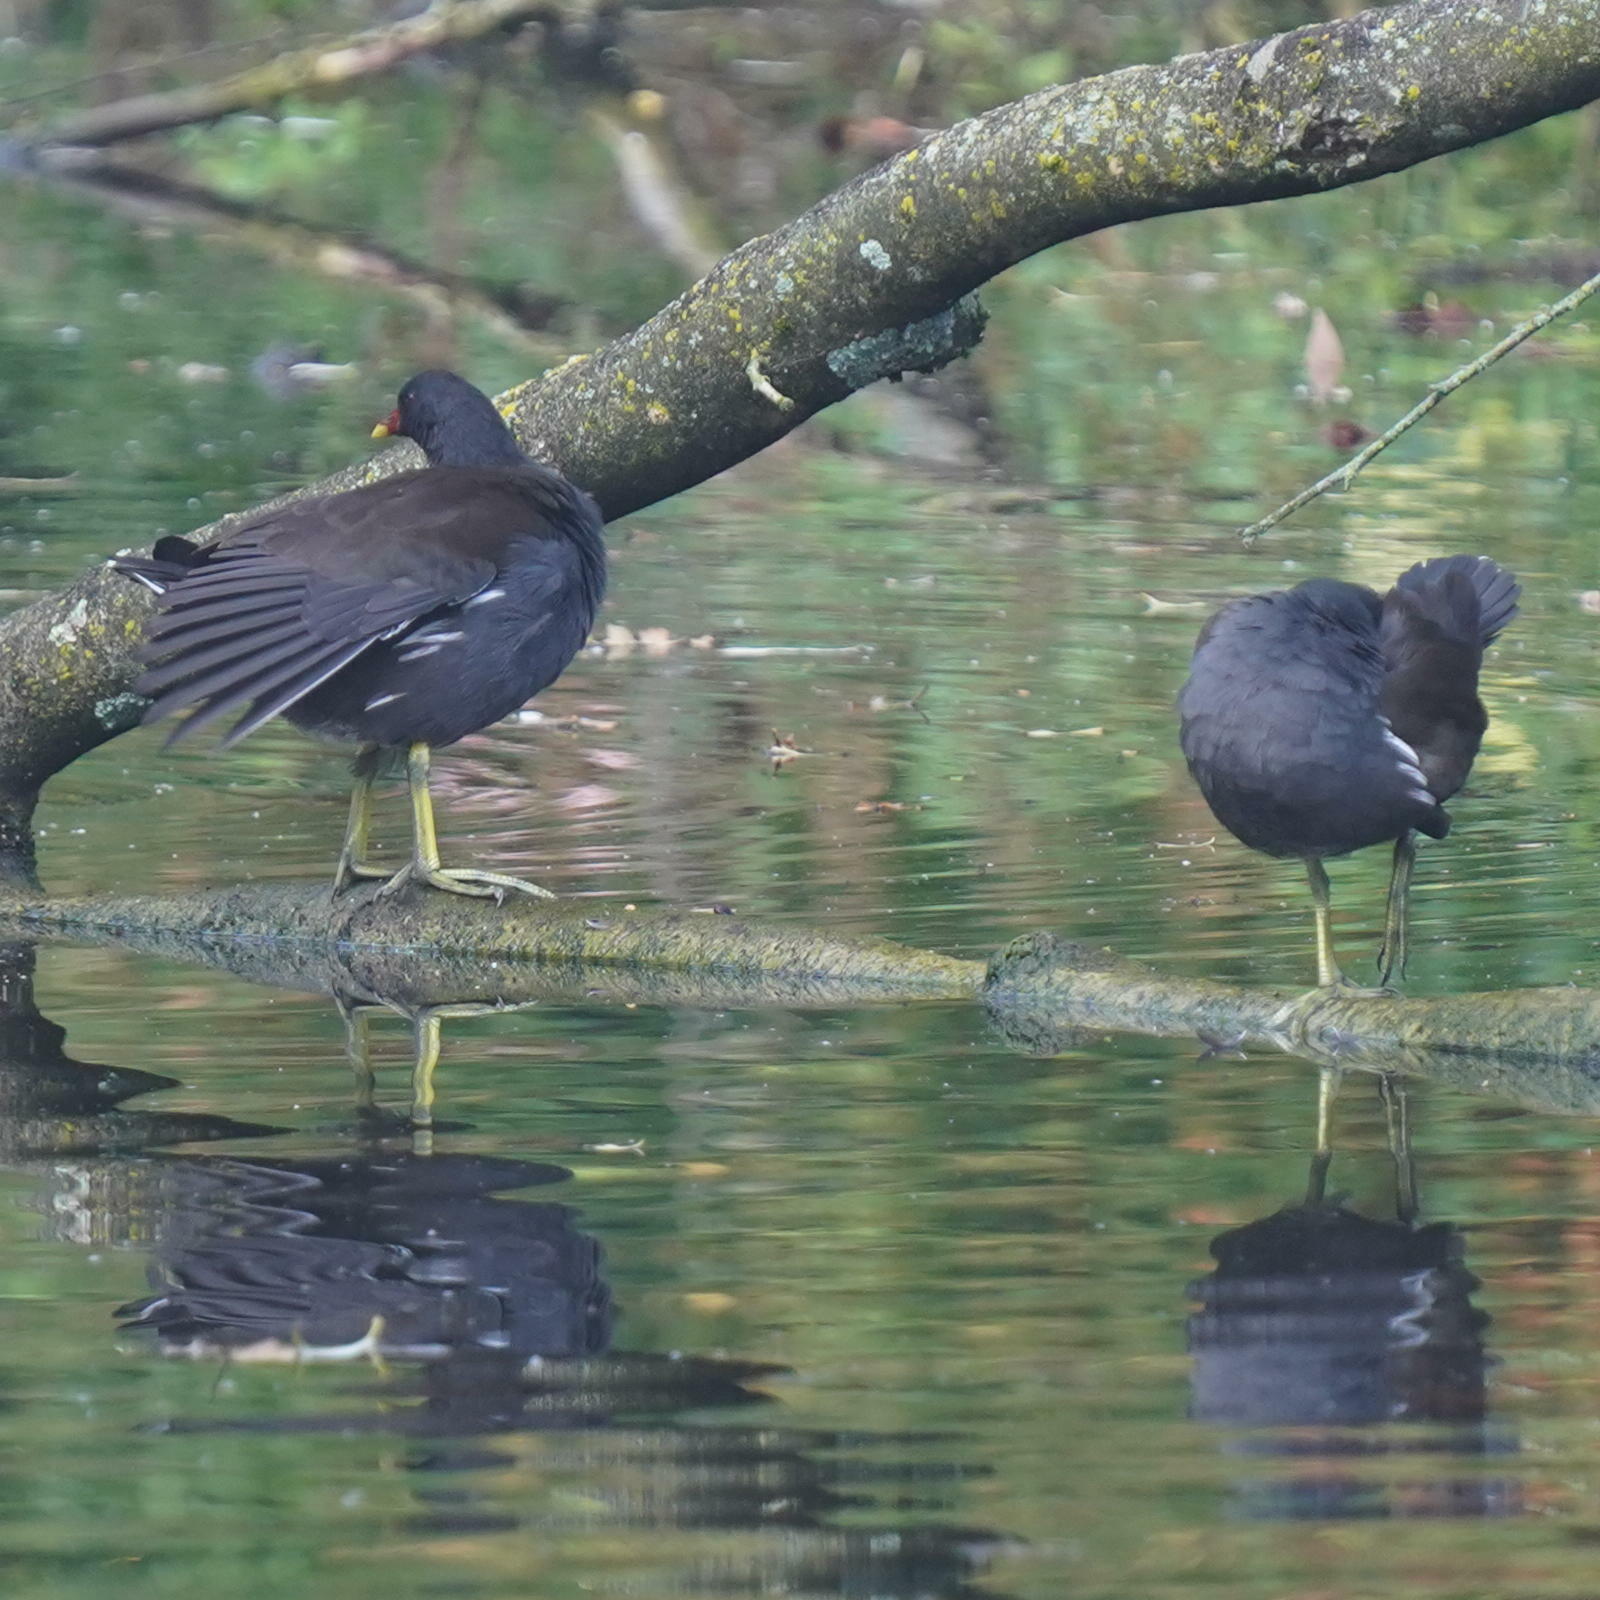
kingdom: Animalia
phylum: Chordata
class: Aves
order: Gruiformes
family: Rallidae
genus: Gallinula
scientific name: Gallinula chloropus
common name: Common moorhen
